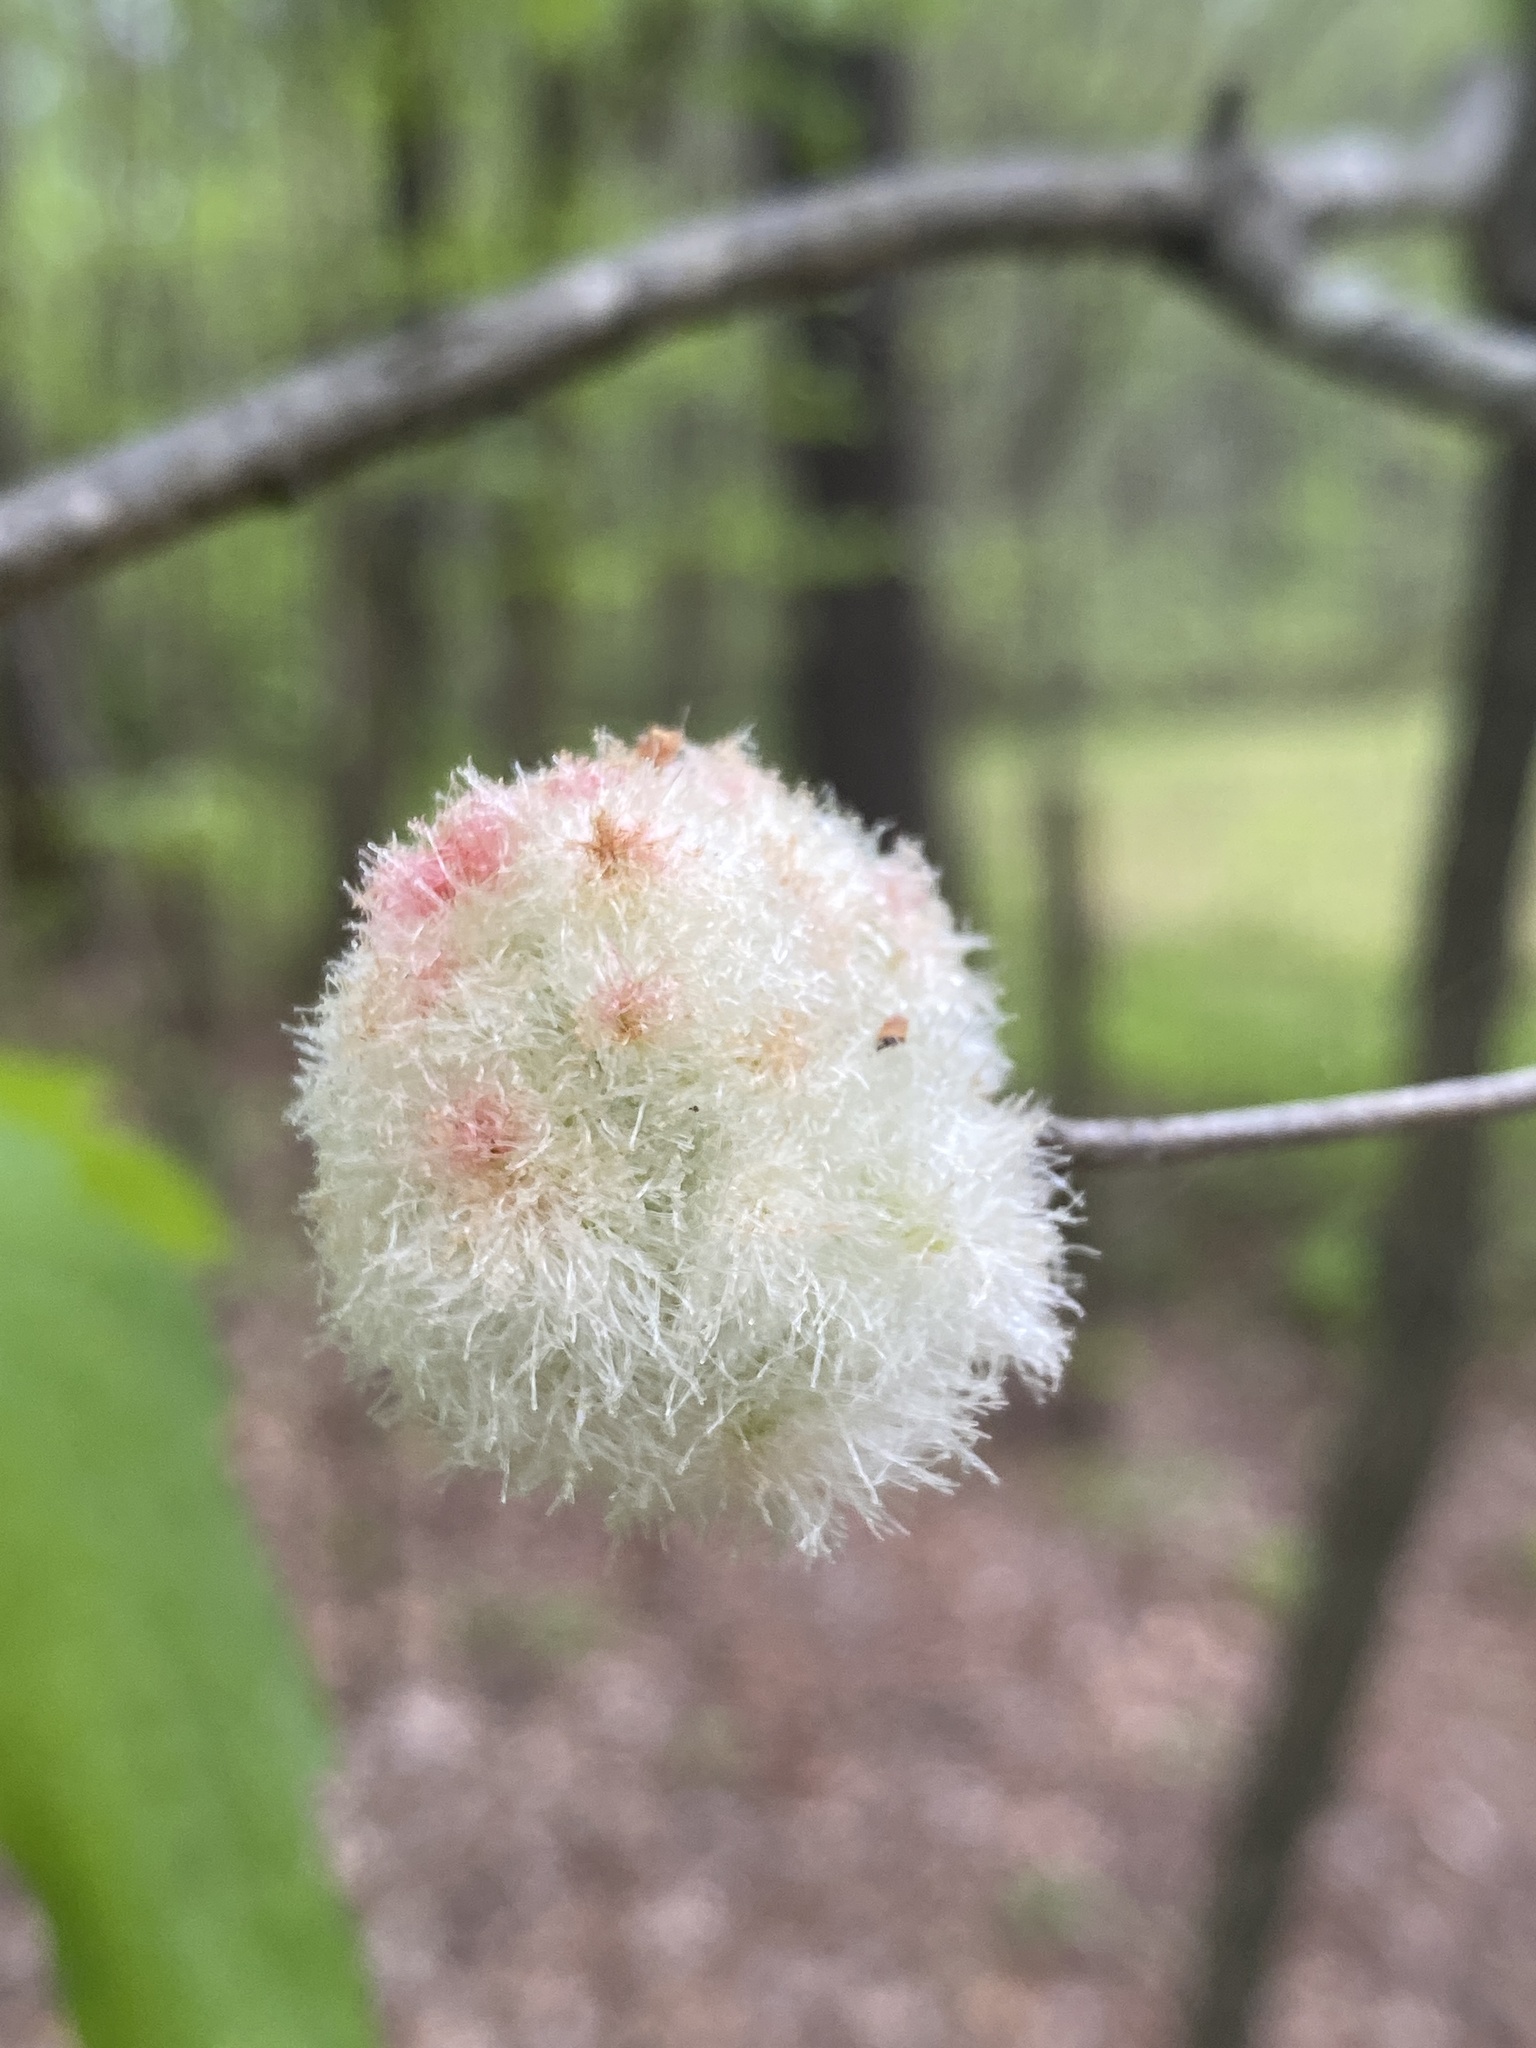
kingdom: Animalia
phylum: Arthropoda
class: Insecta
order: Hymenoptera
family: Cynipidae
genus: Callirhytis
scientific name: Callirhytis
